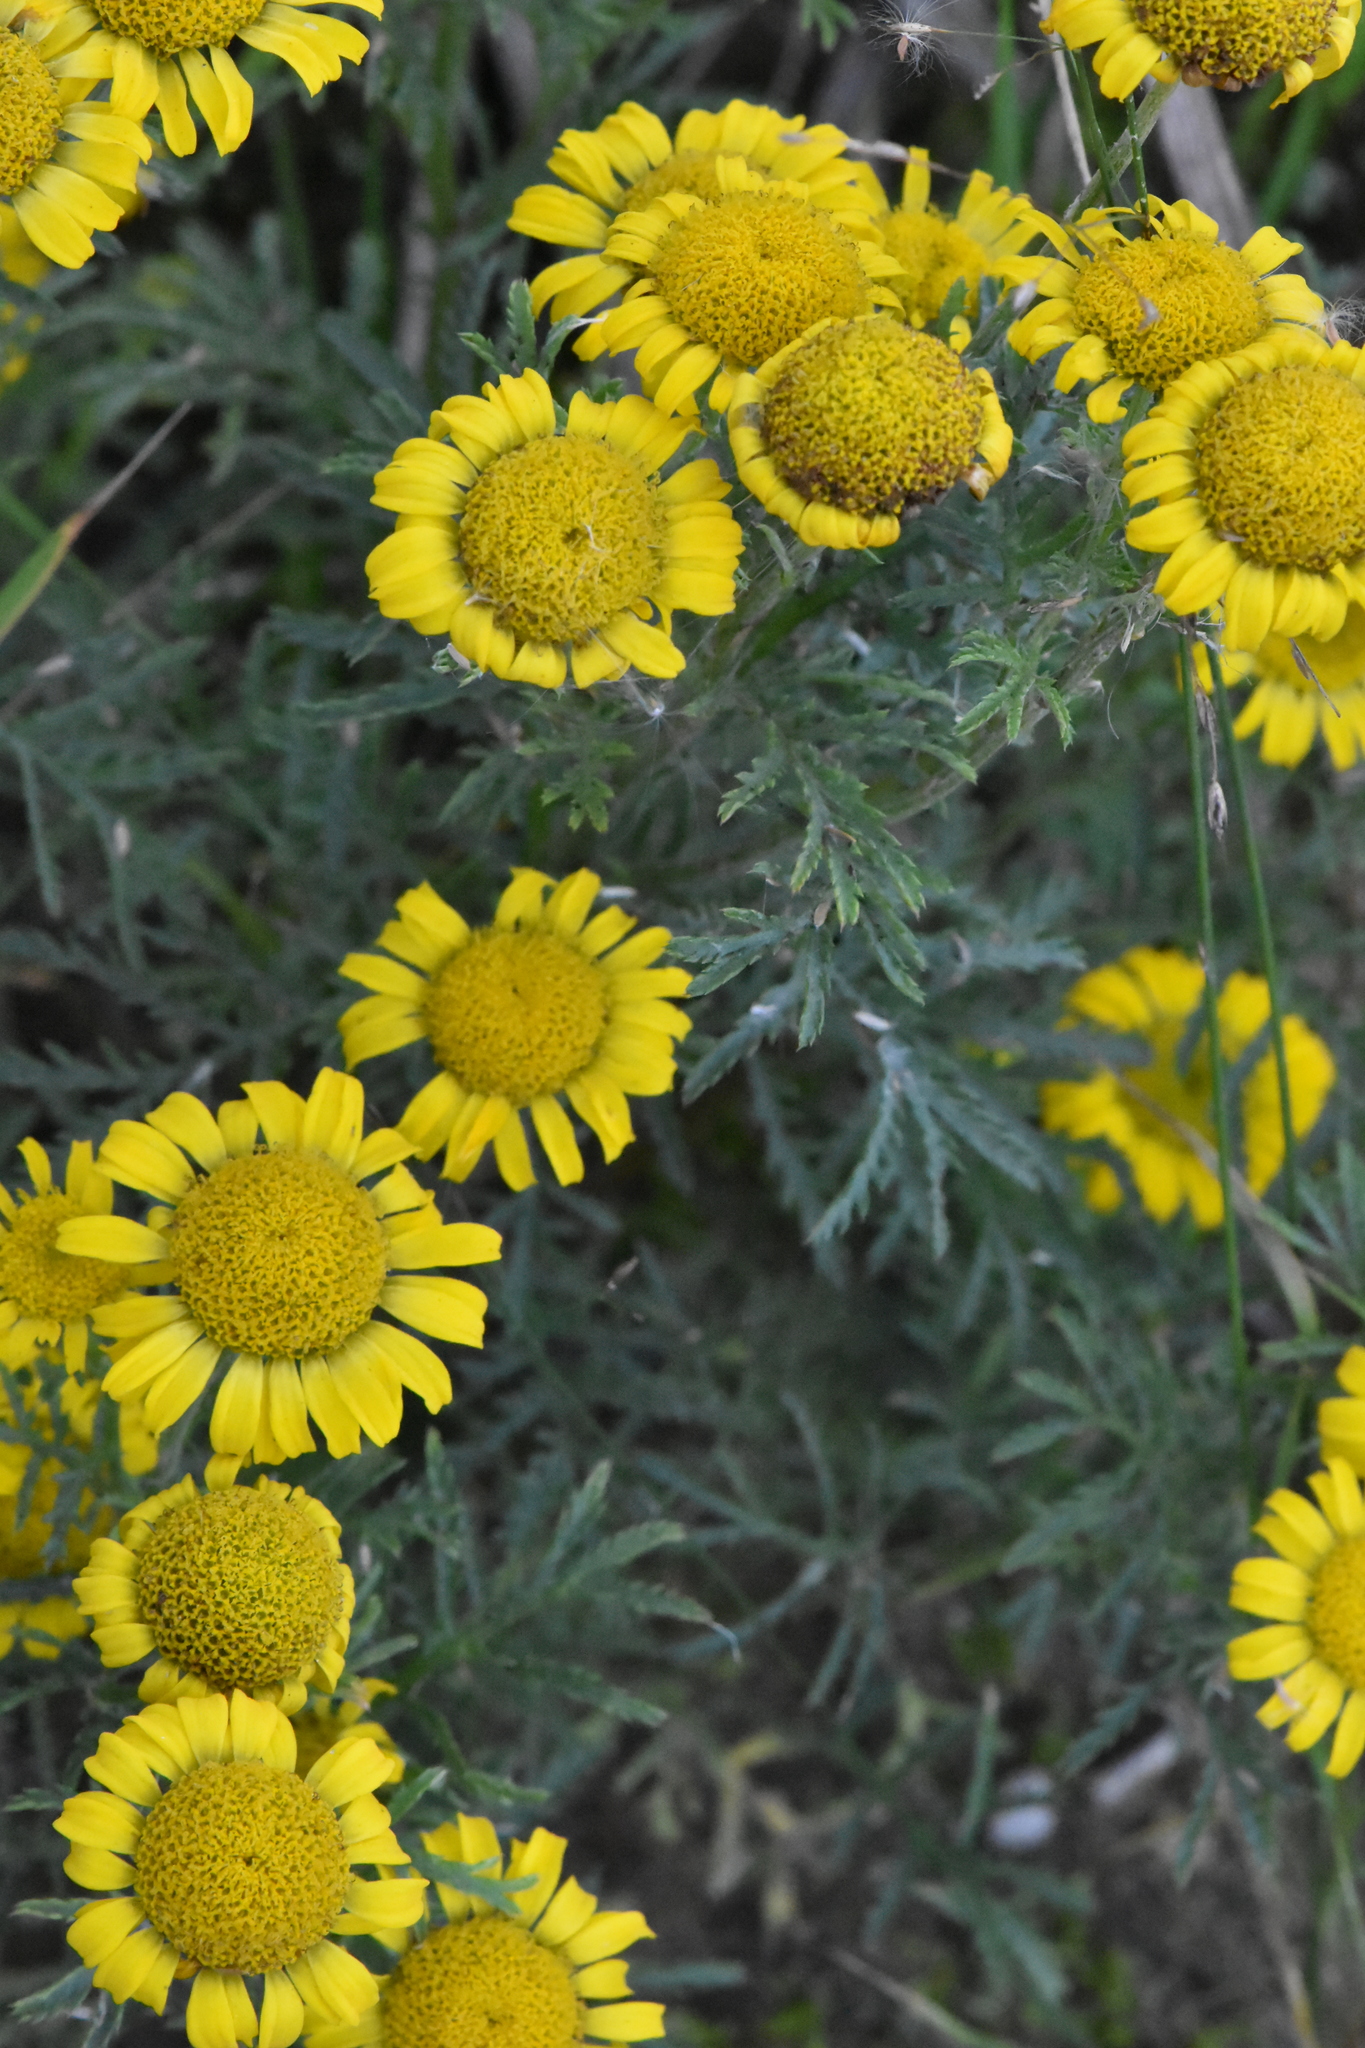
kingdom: Plantae
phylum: Tracheophyta
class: Magnoliopsida
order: Asterales
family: Asteraceae
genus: Cota
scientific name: Cota tinctoria
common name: Golden chamomile
